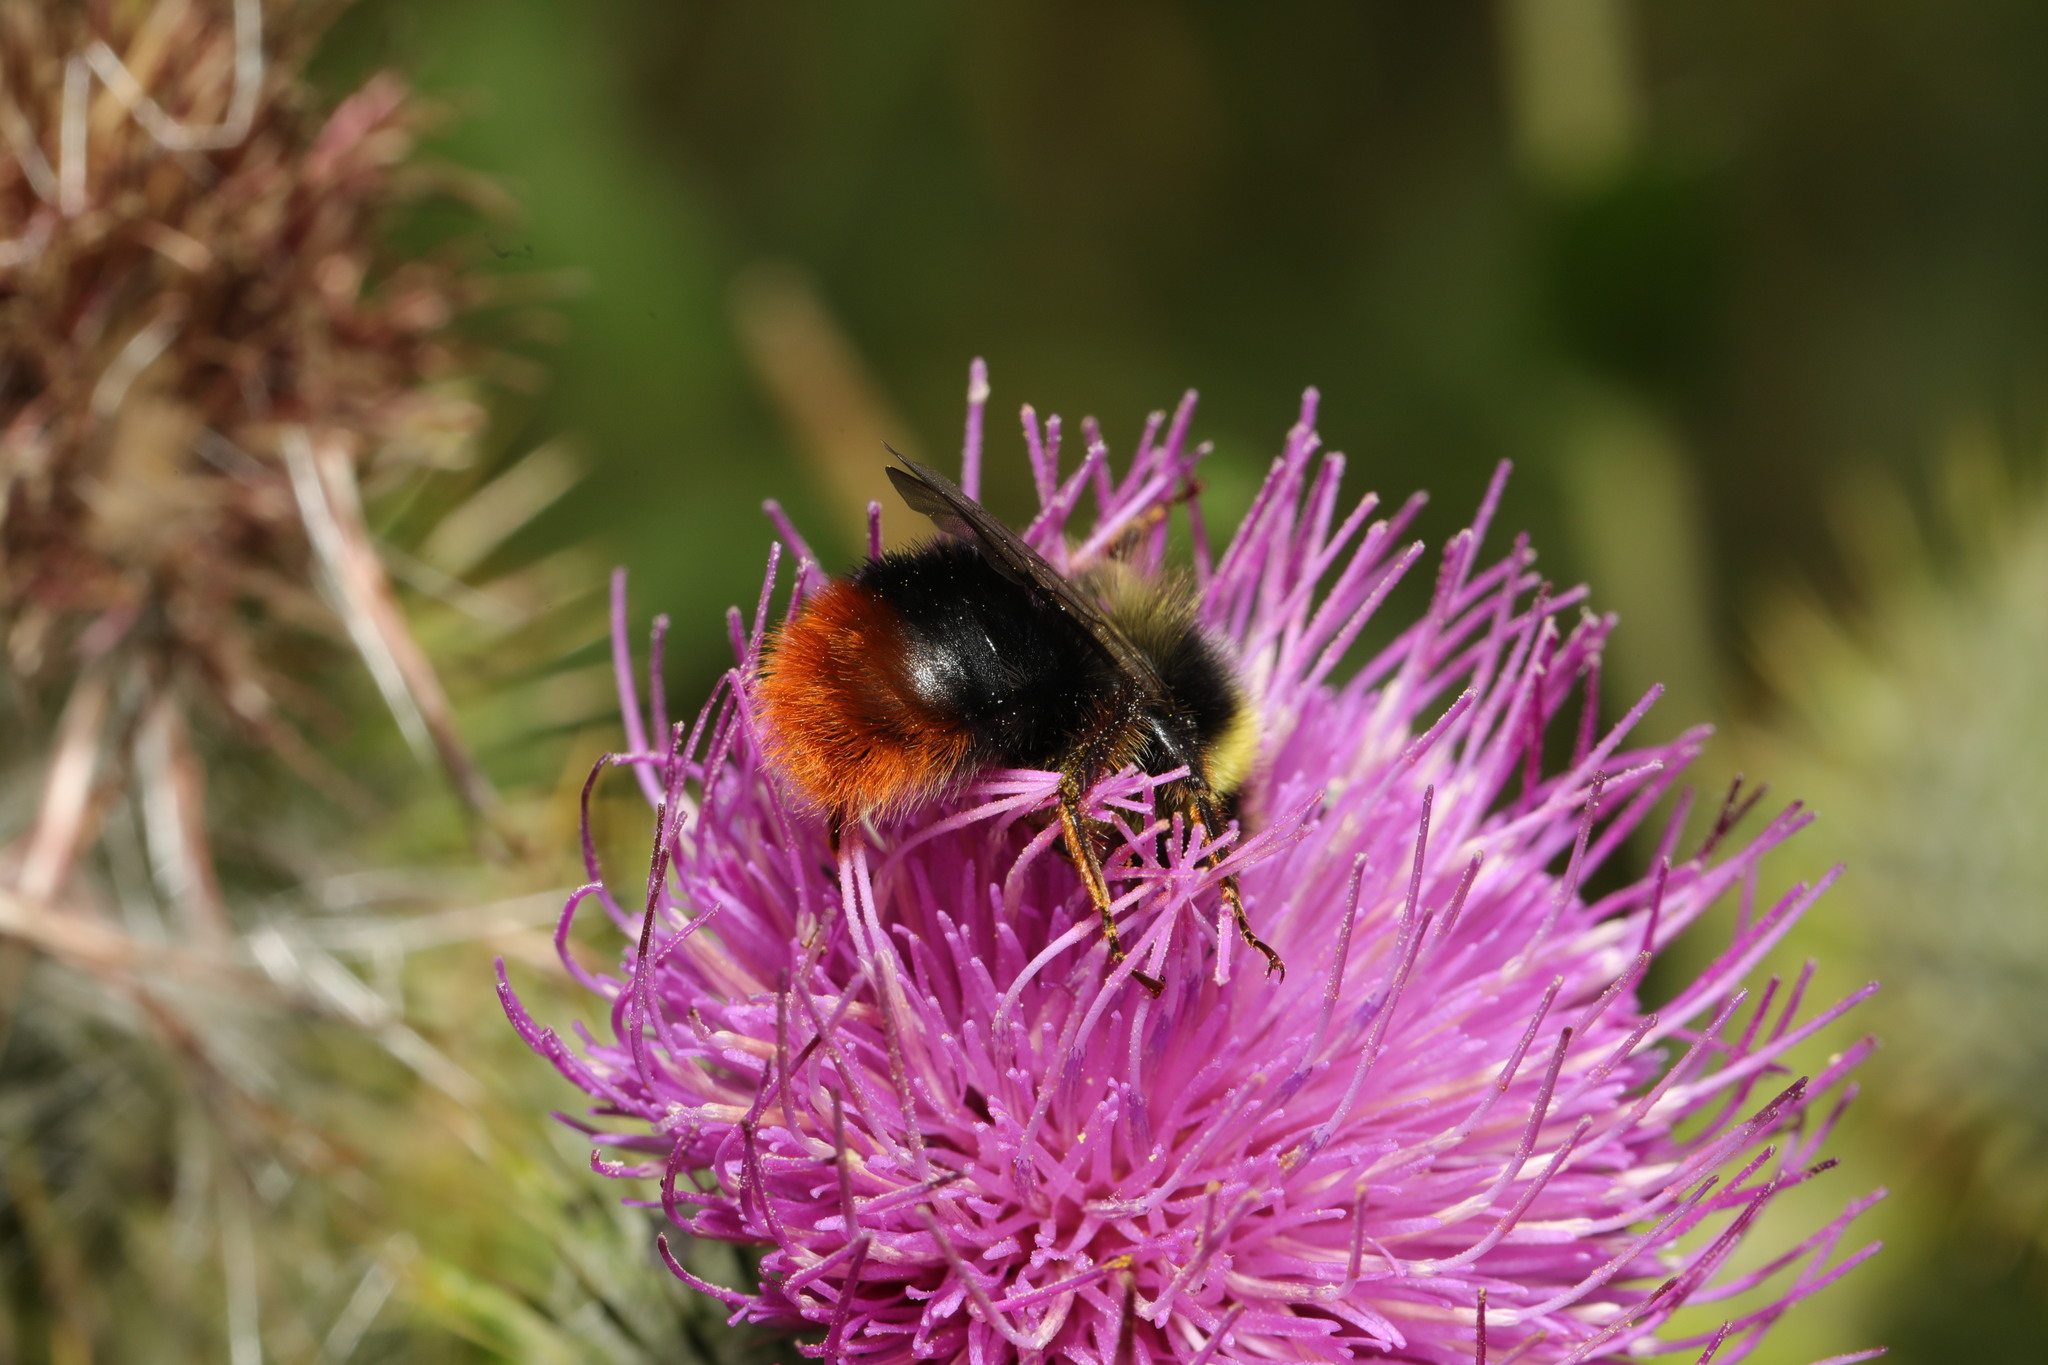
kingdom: Animalia
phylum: Arthropoda
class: Insecta
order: Hymenoptera
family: Apidae
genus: Bombus
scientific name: Bombus lapidarius
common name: Large red-tailed humble-bee
